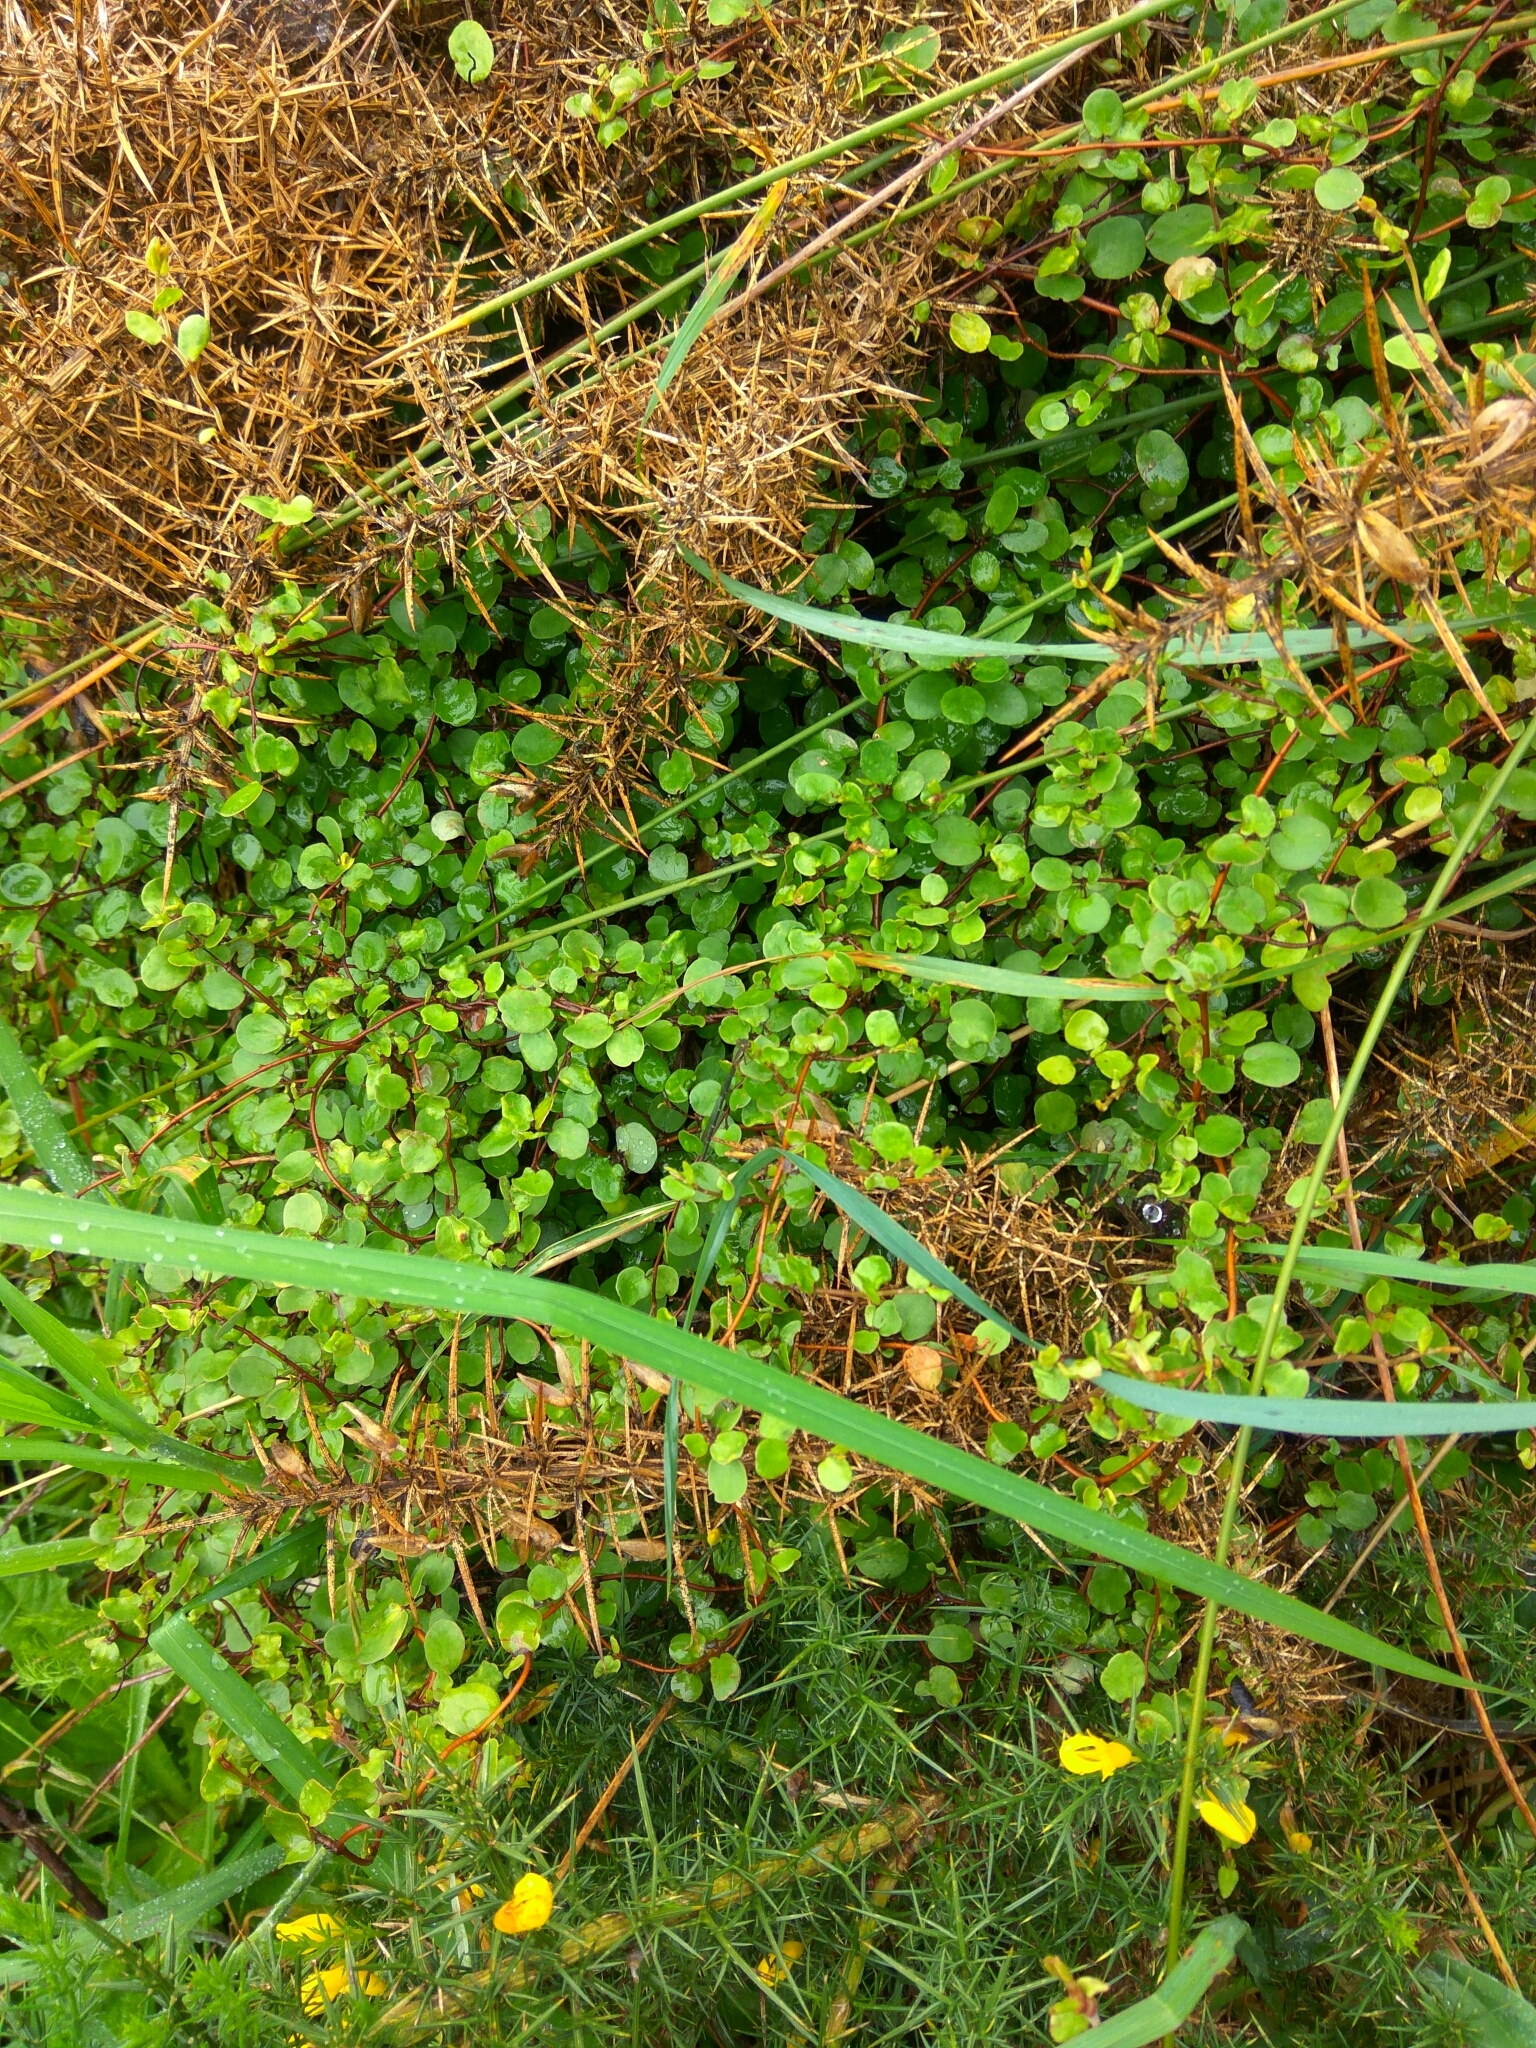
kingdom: Plantae
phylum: Tracheophyta
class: Magnoliopsida
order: Caryophyllales
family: Polygonaceae
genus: Muehlenbeckia
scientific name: Muehlenbeckia complexa
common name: Wireplant
